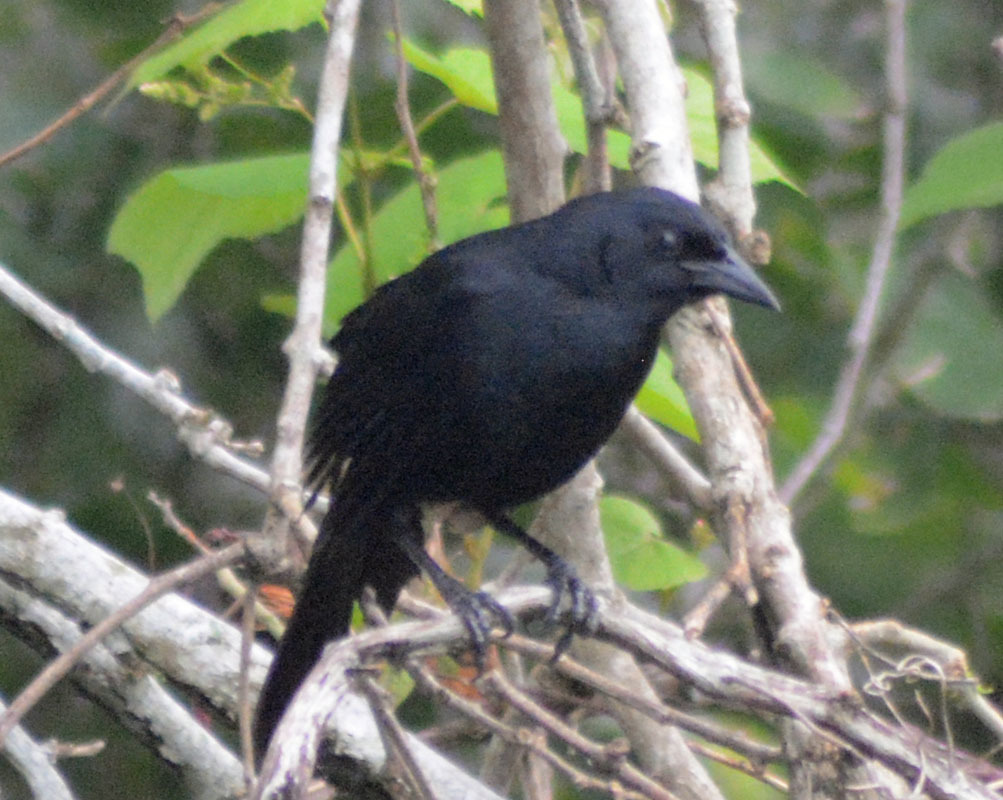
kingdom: Animalia
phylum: Chordata
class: Aves
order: Passeriformes
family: Icteridae
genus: Dives
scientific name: Dives dives
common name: Melodious blackbird
